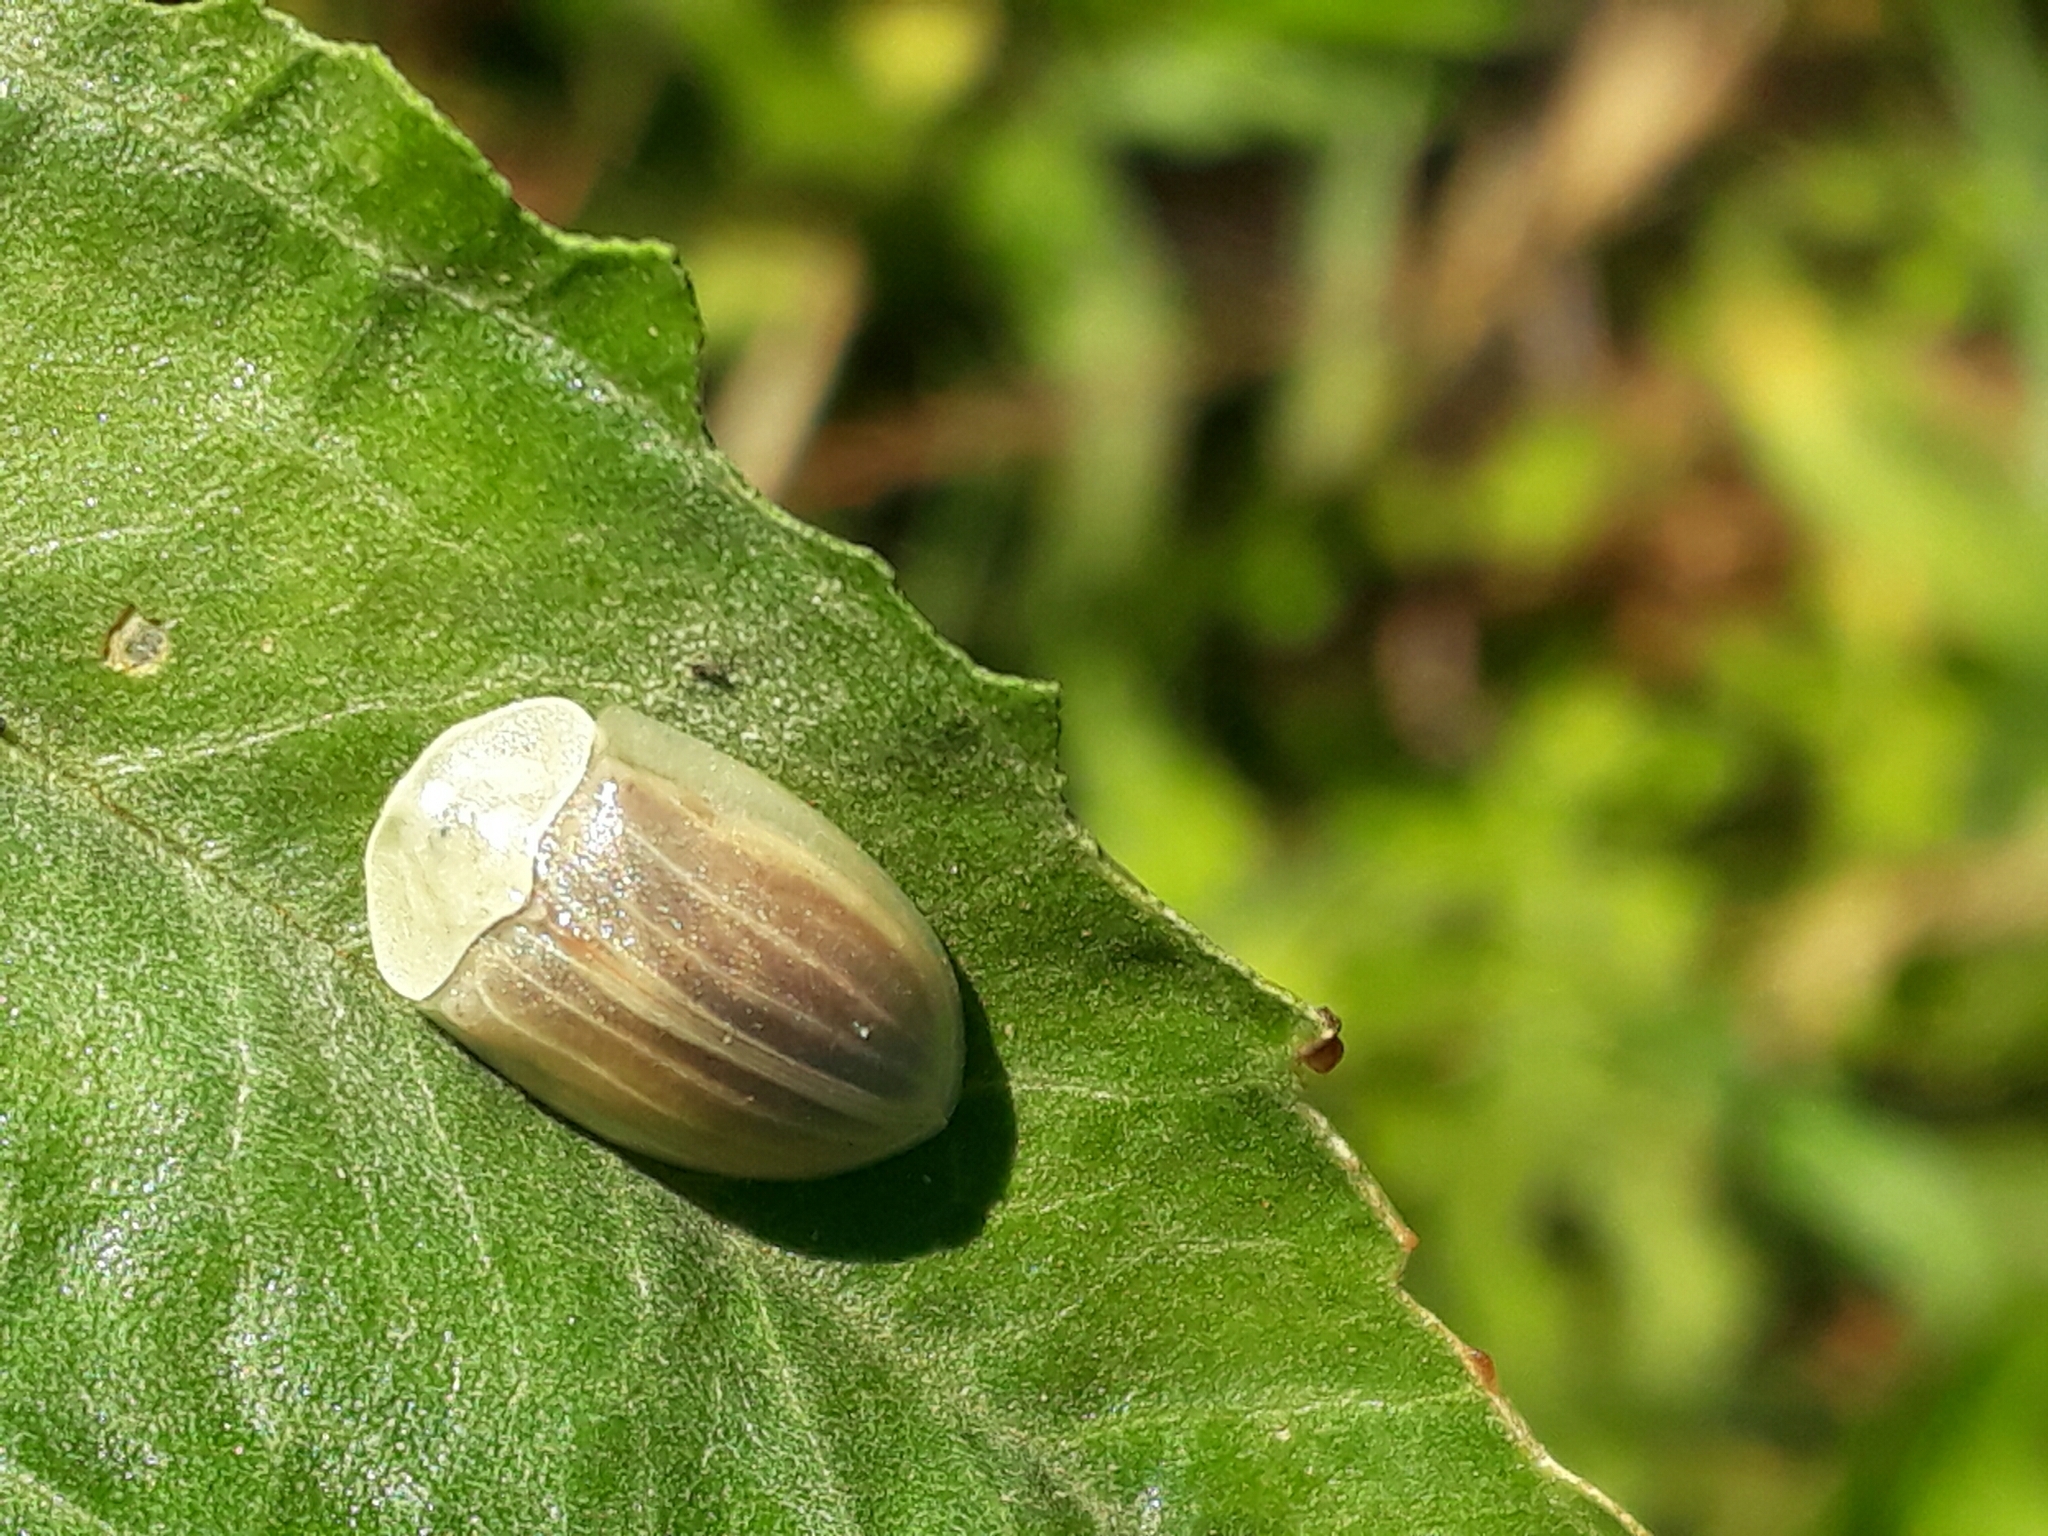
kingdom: Animalia
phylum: Arthropoda
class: Insecta
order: Coleoptera
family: Chrysomelidae
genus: Anacassis
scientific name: Anacassis fuscata
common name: Seepwillow flea beetle
